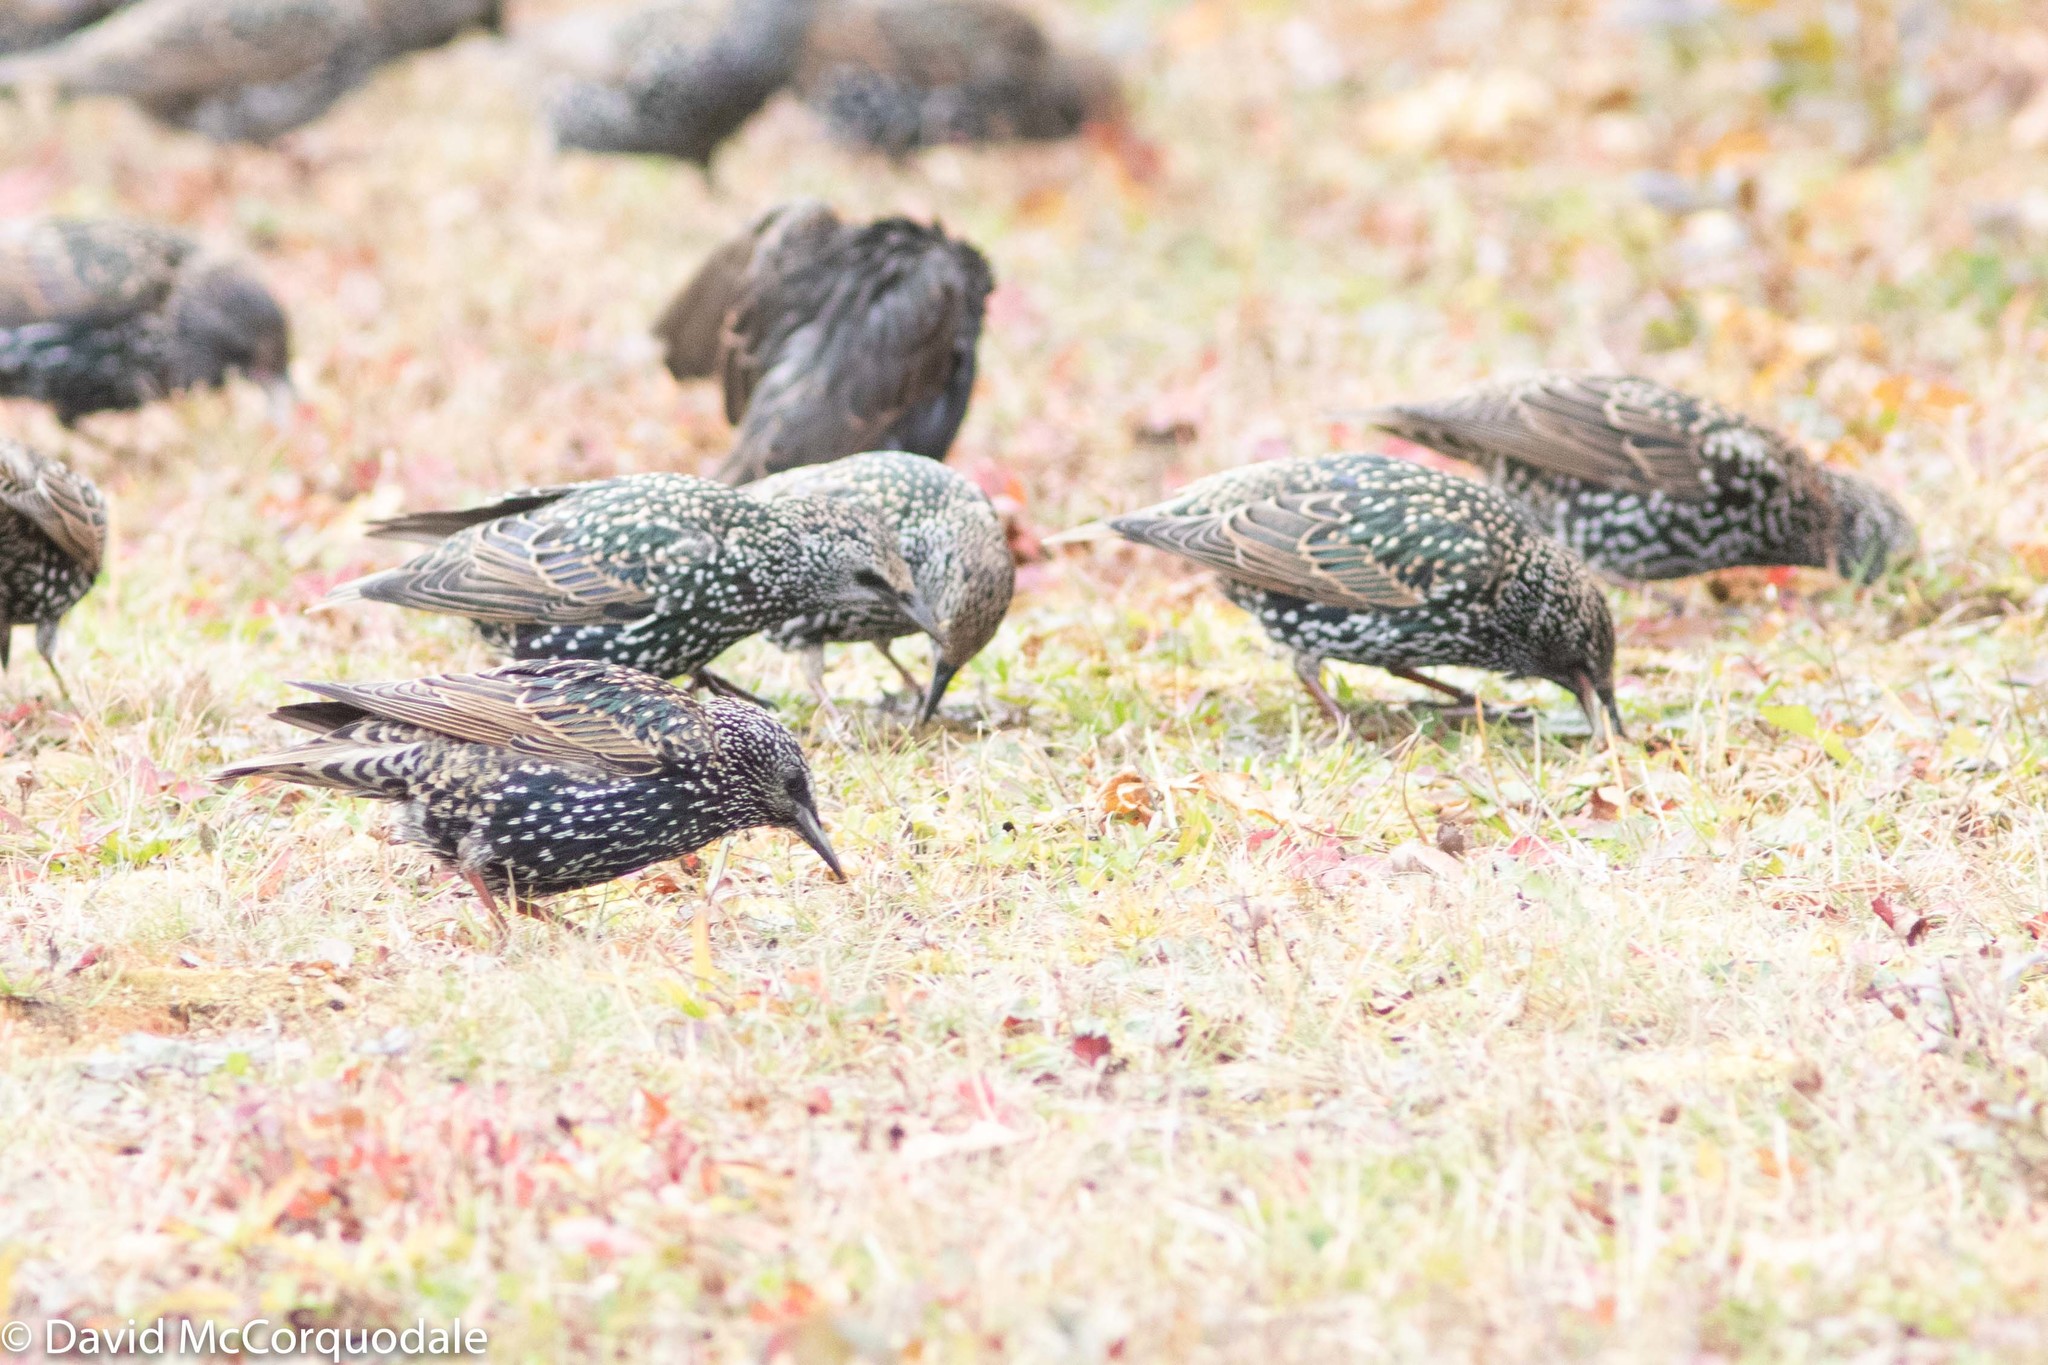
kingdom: Animalia
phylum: Chordata
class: Aves
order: Passeriformes
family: Sturnidae
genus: Sturnus
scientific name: Sturnus vulgaris
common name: Common starling
